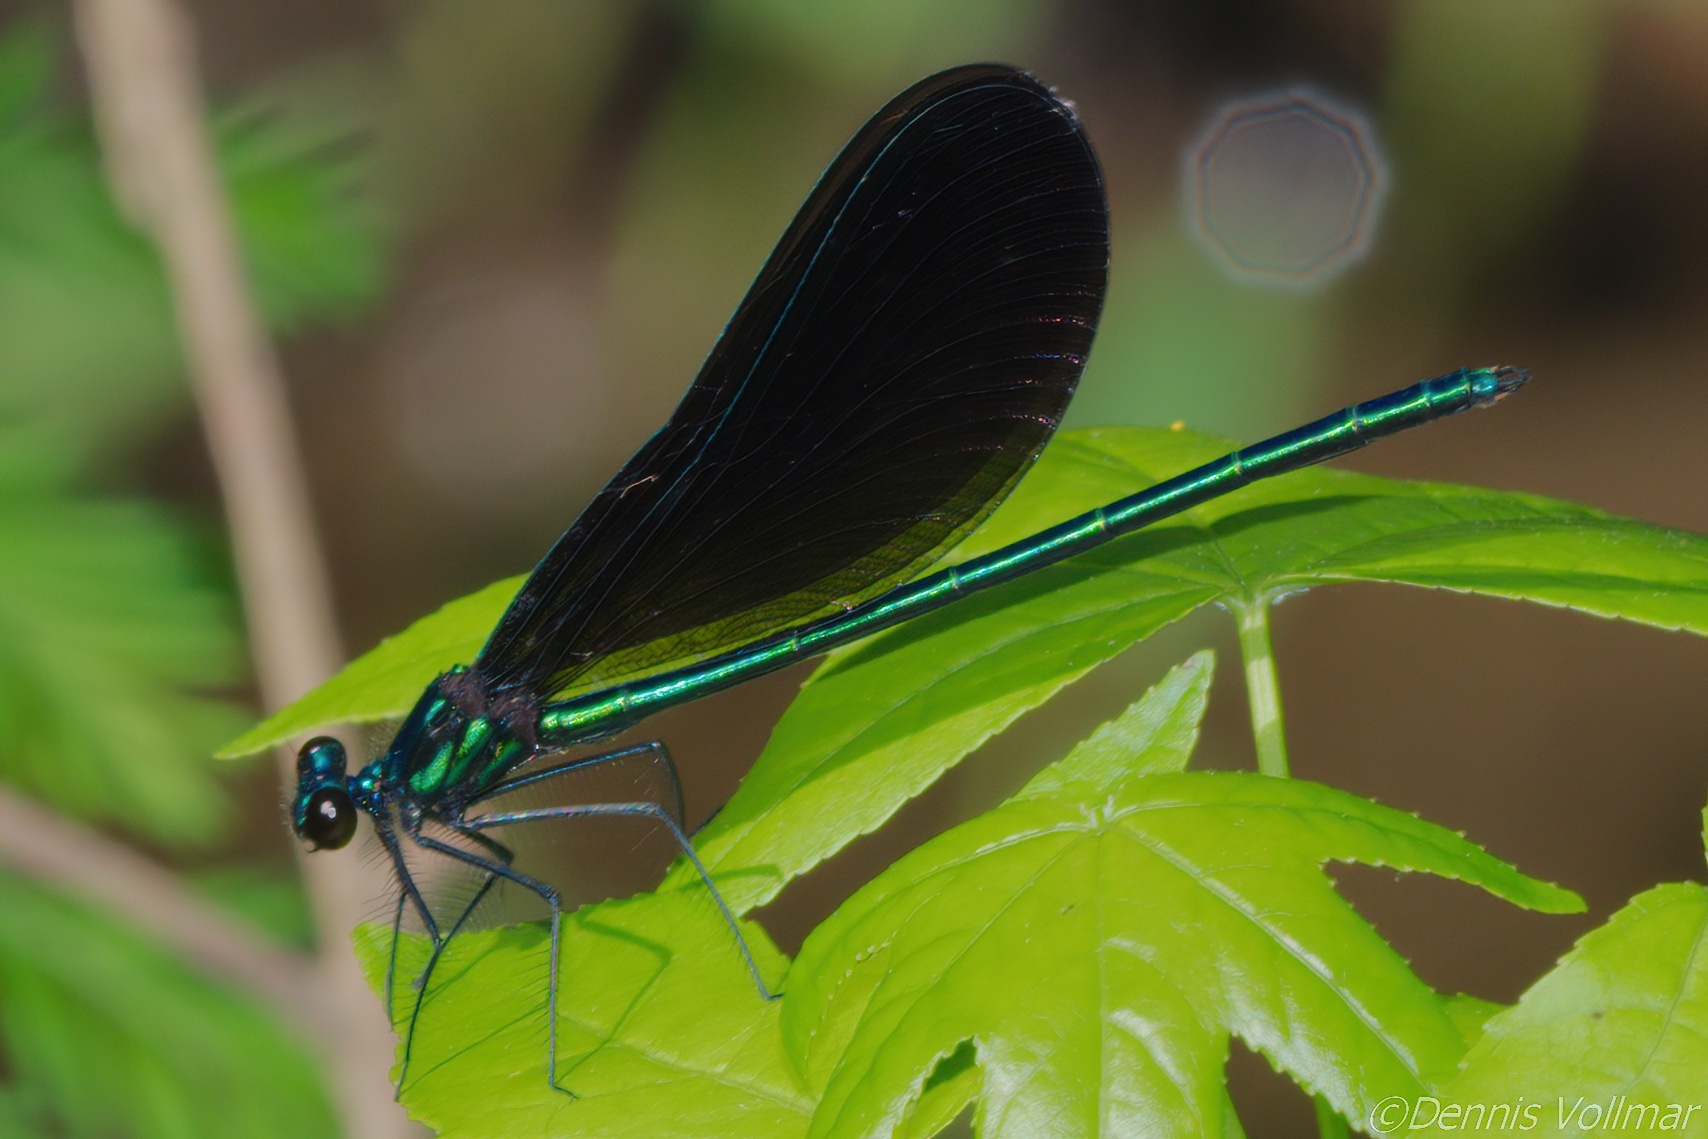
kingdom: Animalia
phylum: Arthropoda
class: Insecta
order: Odonata
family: Calopterygidae
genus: Calopteryx
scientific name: Calopteryx maculata
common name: Ebony jewelwing
